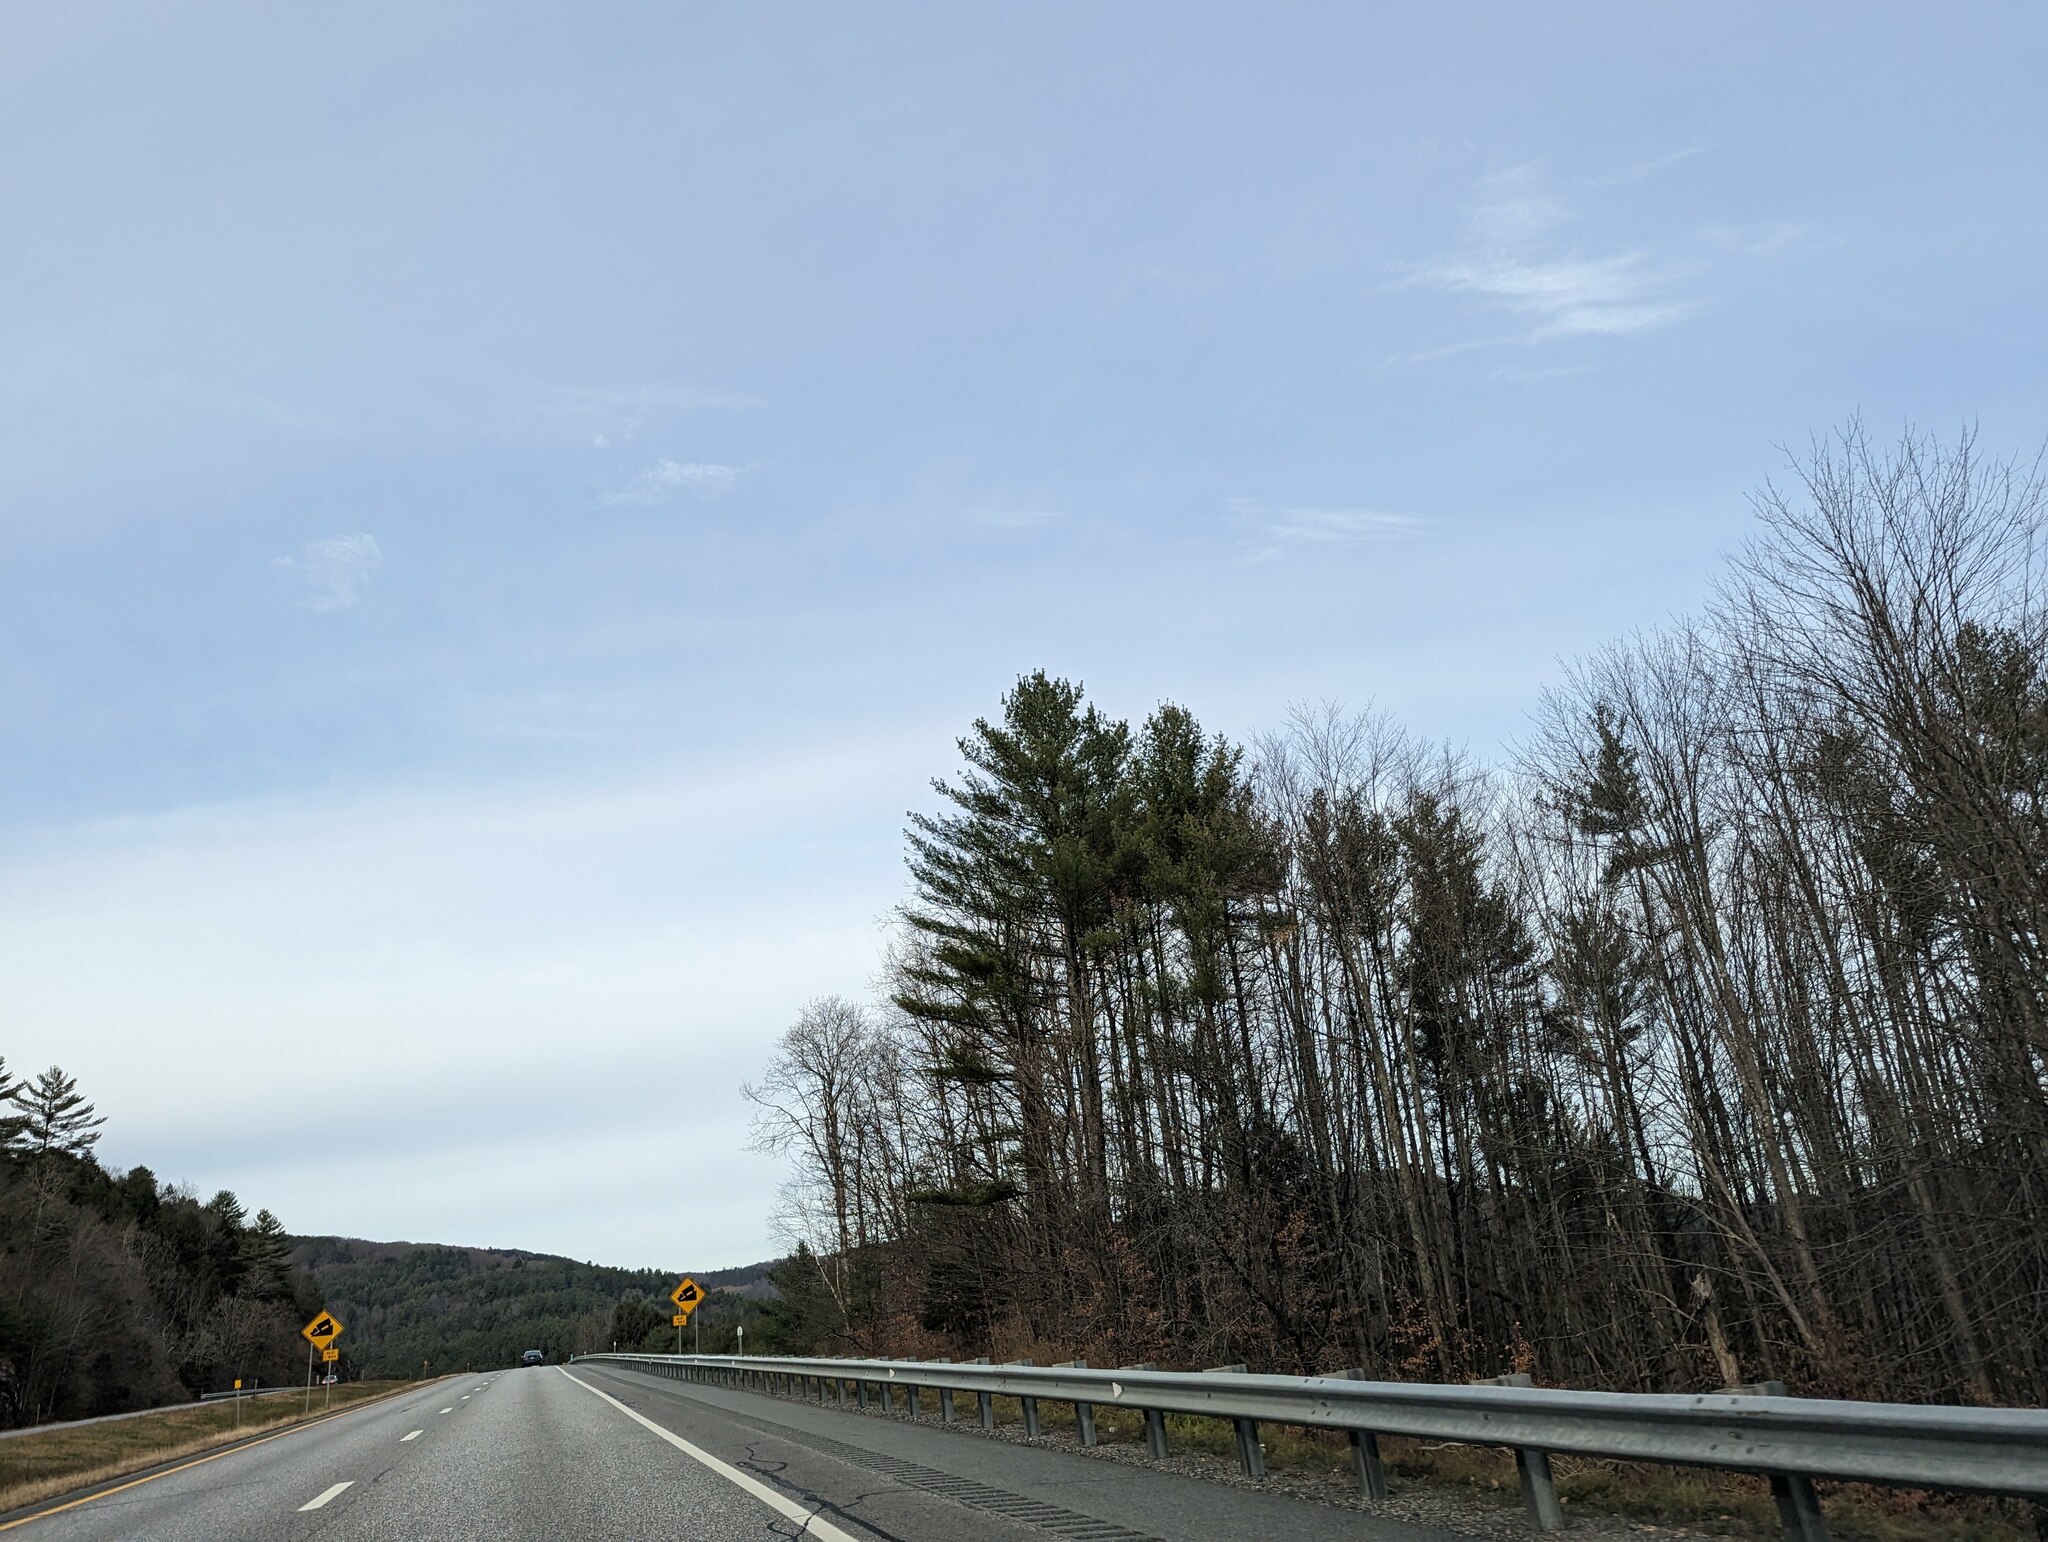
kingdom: Plantae
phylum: Tracheophyta
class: Pinopsida
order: Pinales
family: Pinaceae
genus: Pinus
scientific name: Pinus strobus
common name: Weymouth pine
